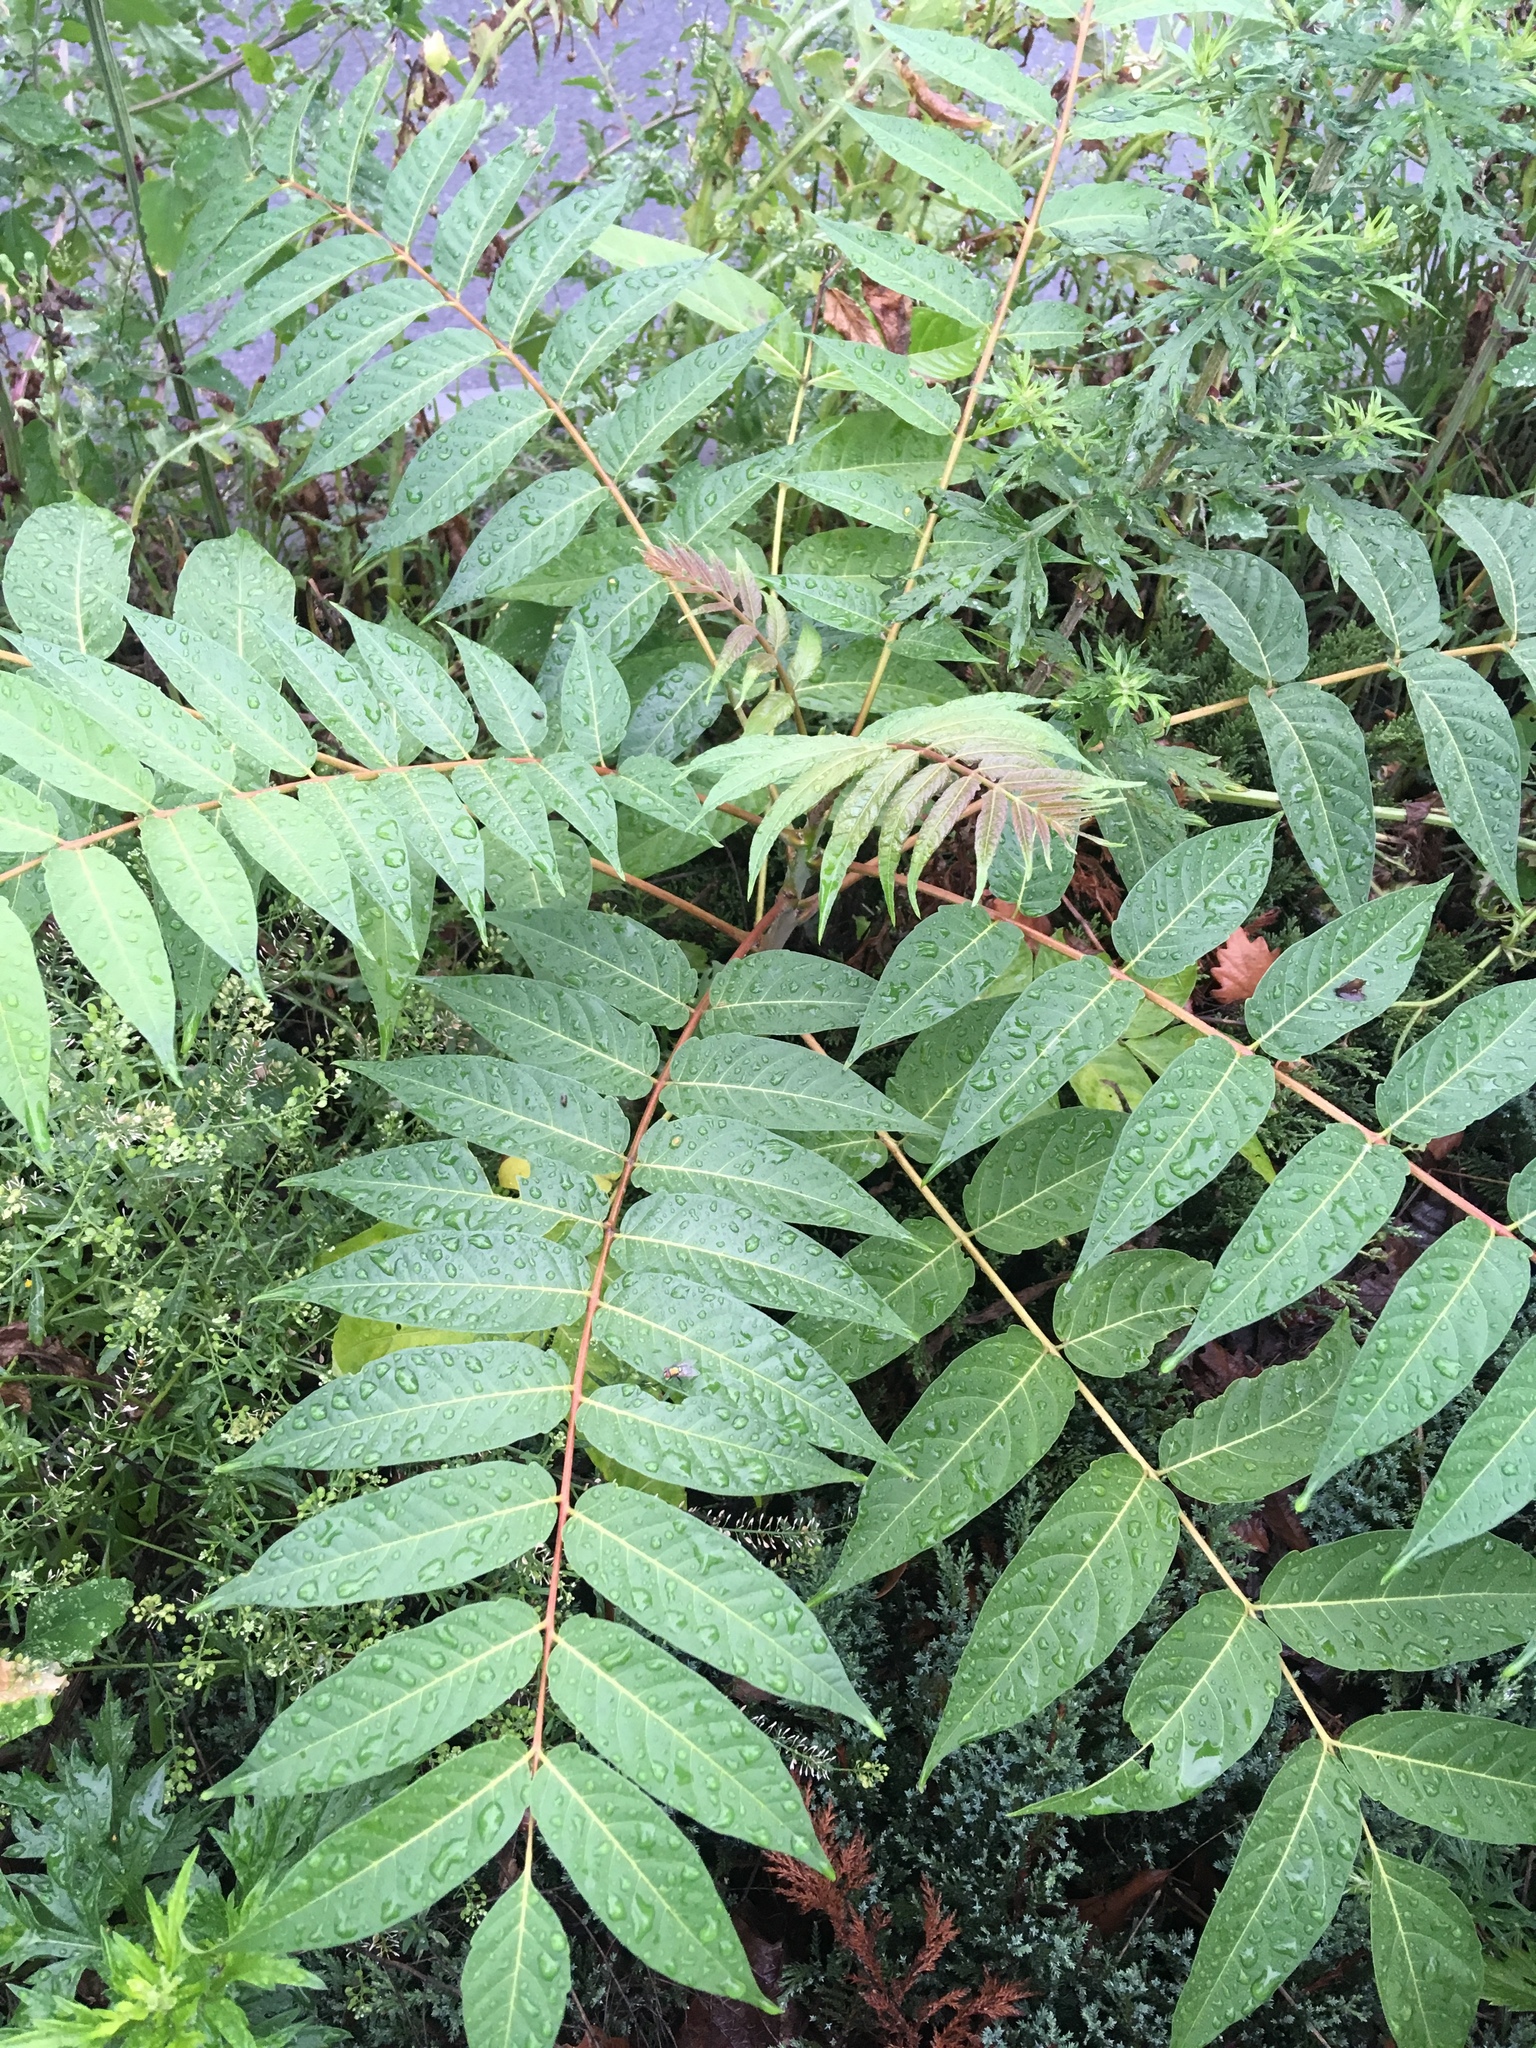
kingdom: Plantae
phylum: Tracheophyta
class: Magnoliopsida
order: Sapindales
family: Simaroubaceae
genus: Ailanthus
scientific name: Ailanthus altissima
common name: Tree-of-heaven
